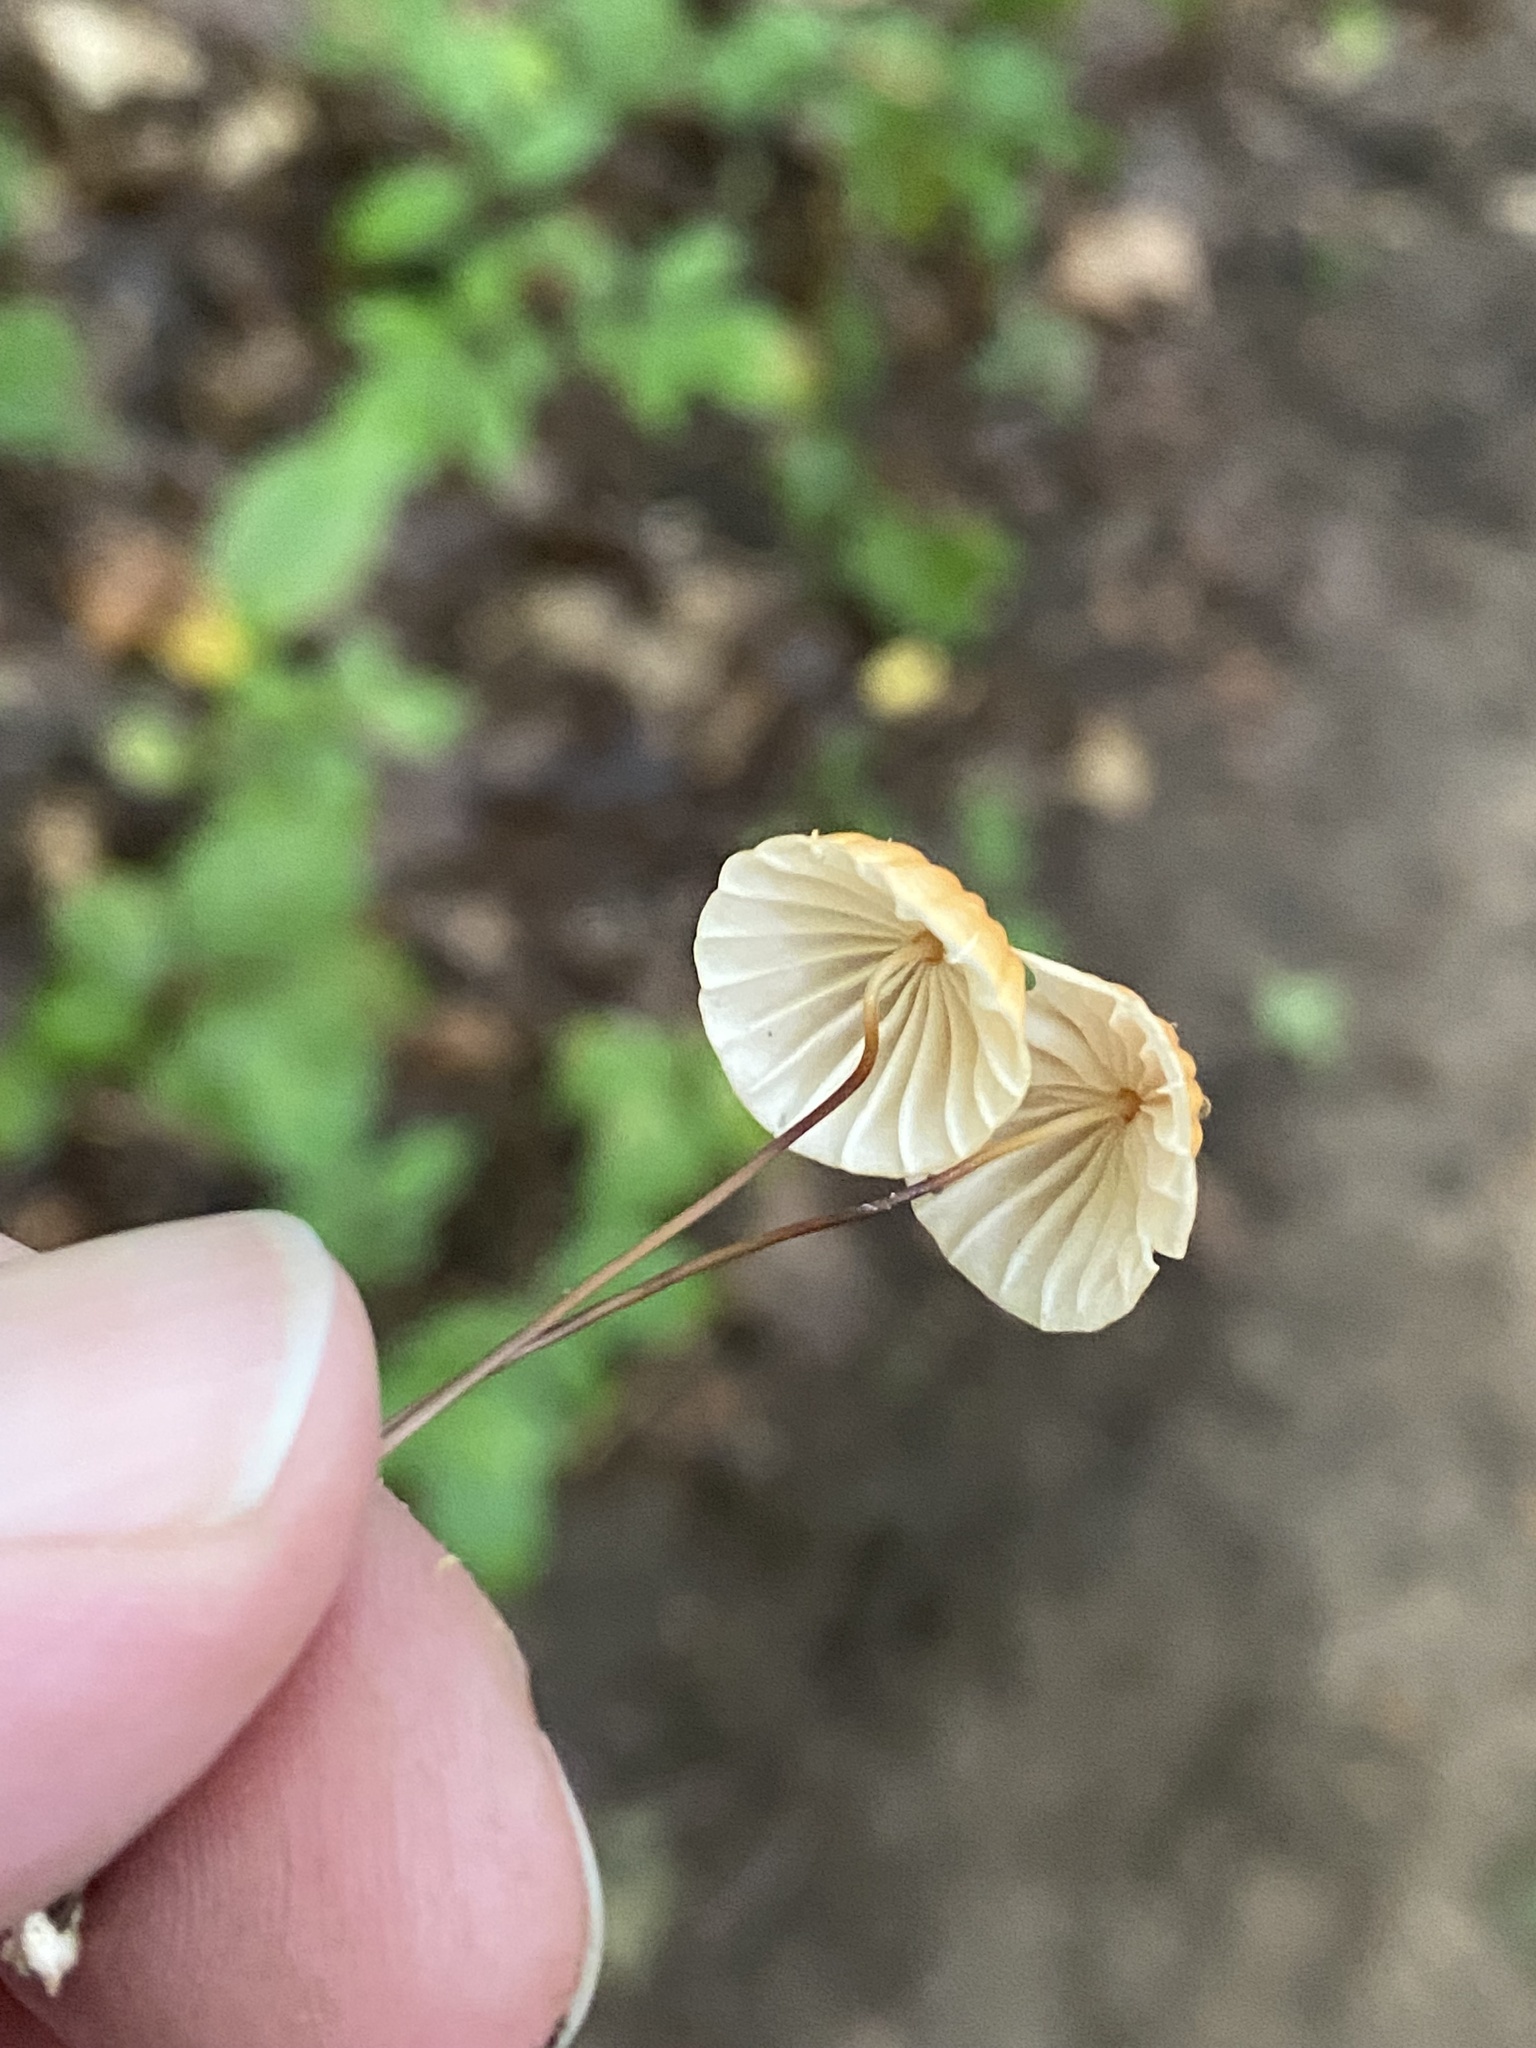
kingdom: Fungi
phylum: Basidiomycota
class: Agaricomycetes
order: Agaricales
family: Marasmiaceae
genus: Marasmius
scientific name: Marasmius siccus
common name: Orange pinwheel
